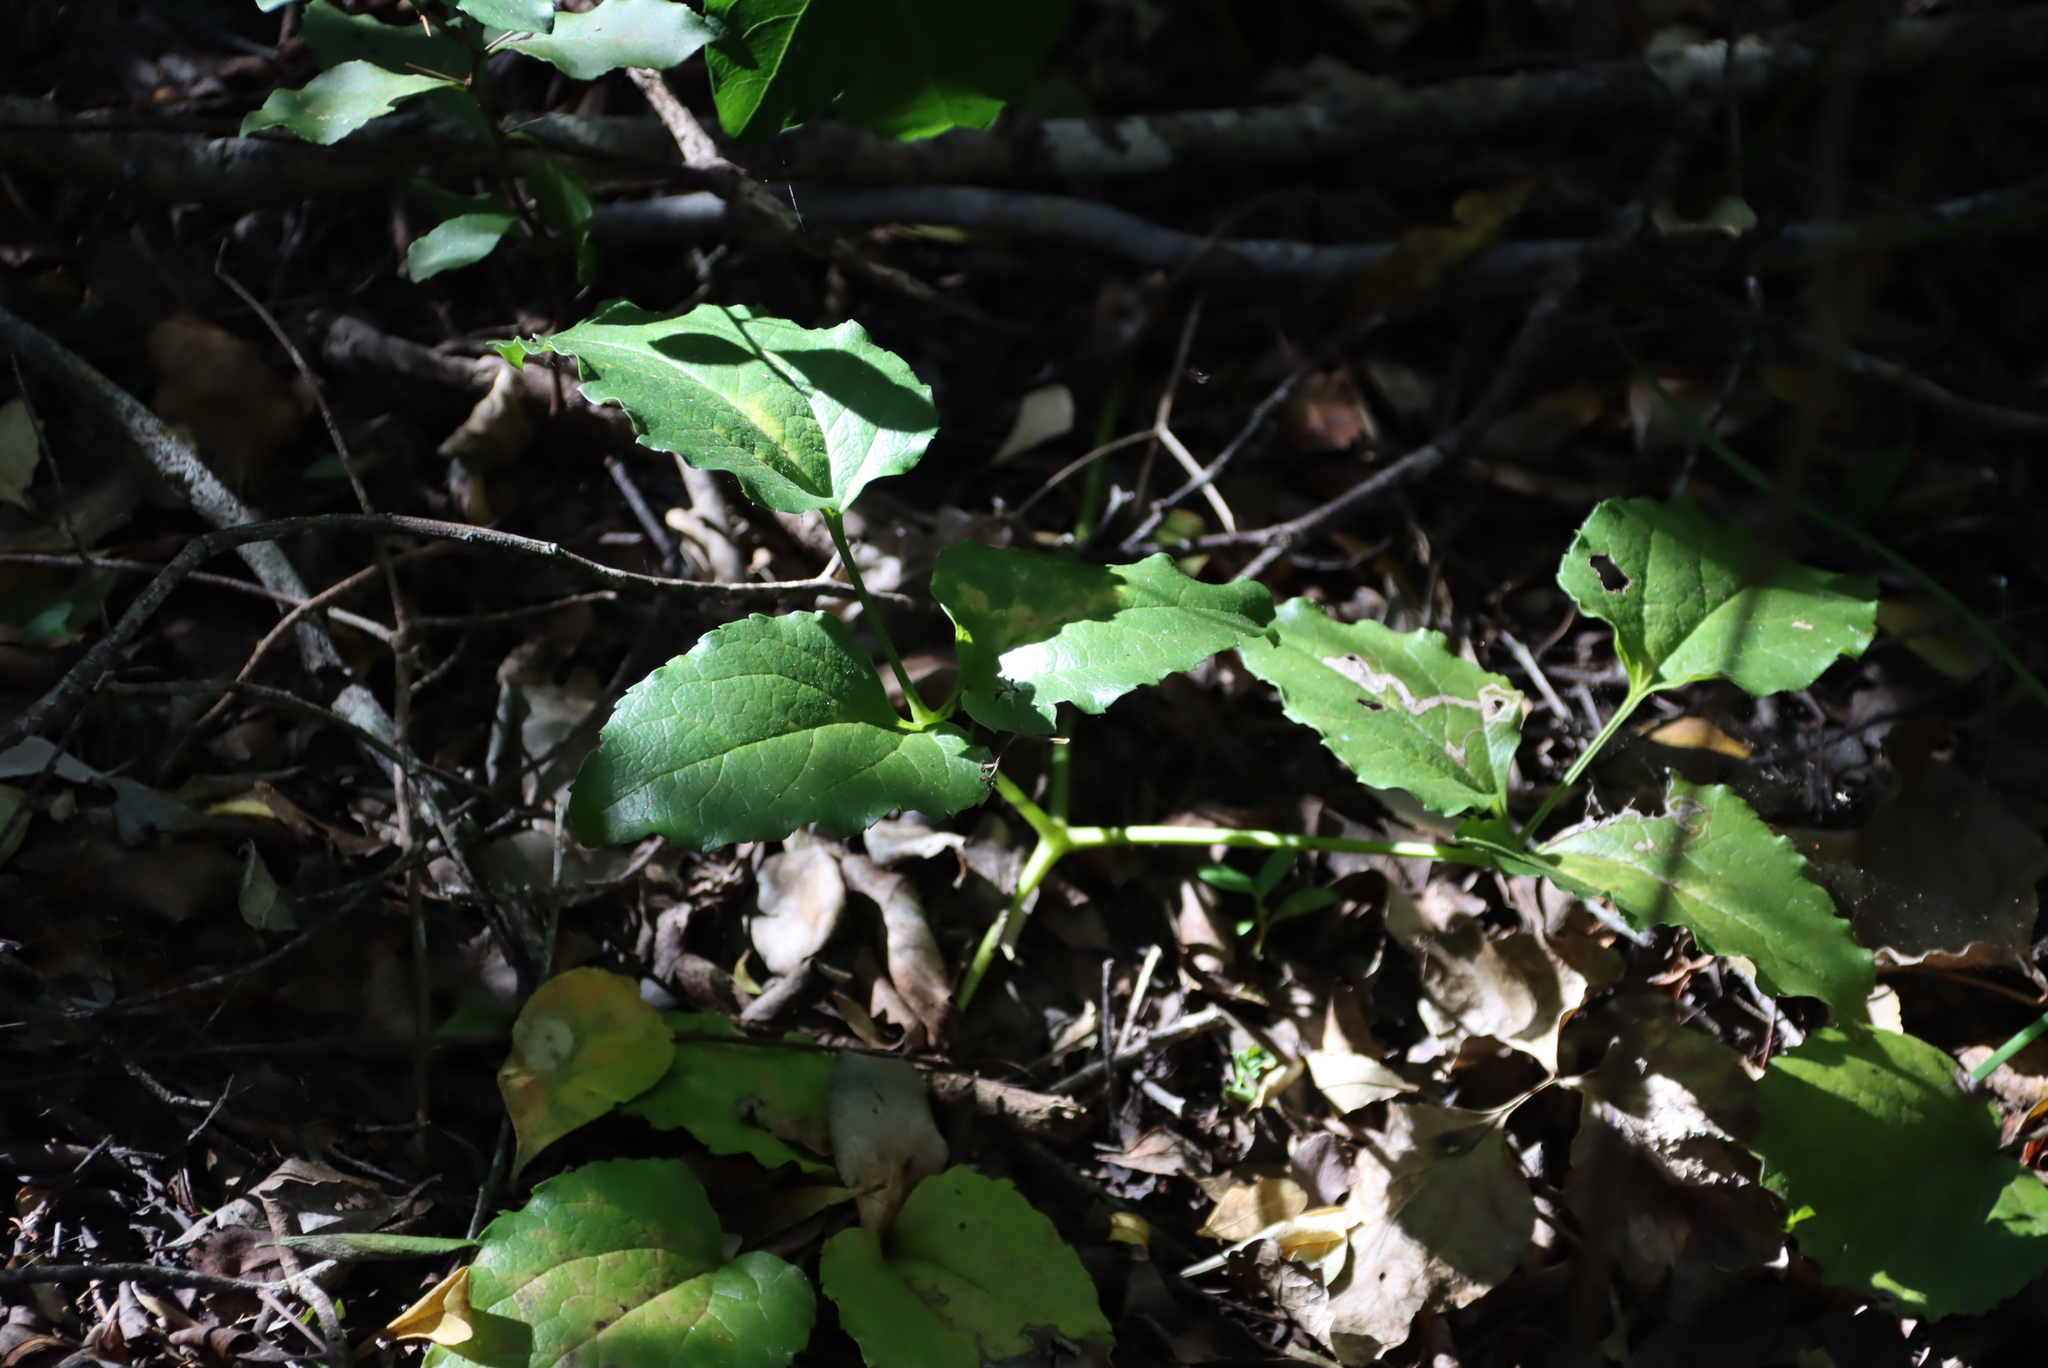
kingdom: Plantae
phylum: Tracheophyta
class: Magnoliopsida
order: Ranunculales
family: Ranunculaceae
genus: Knowltonia
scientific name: Knowltonia vesicatoria
